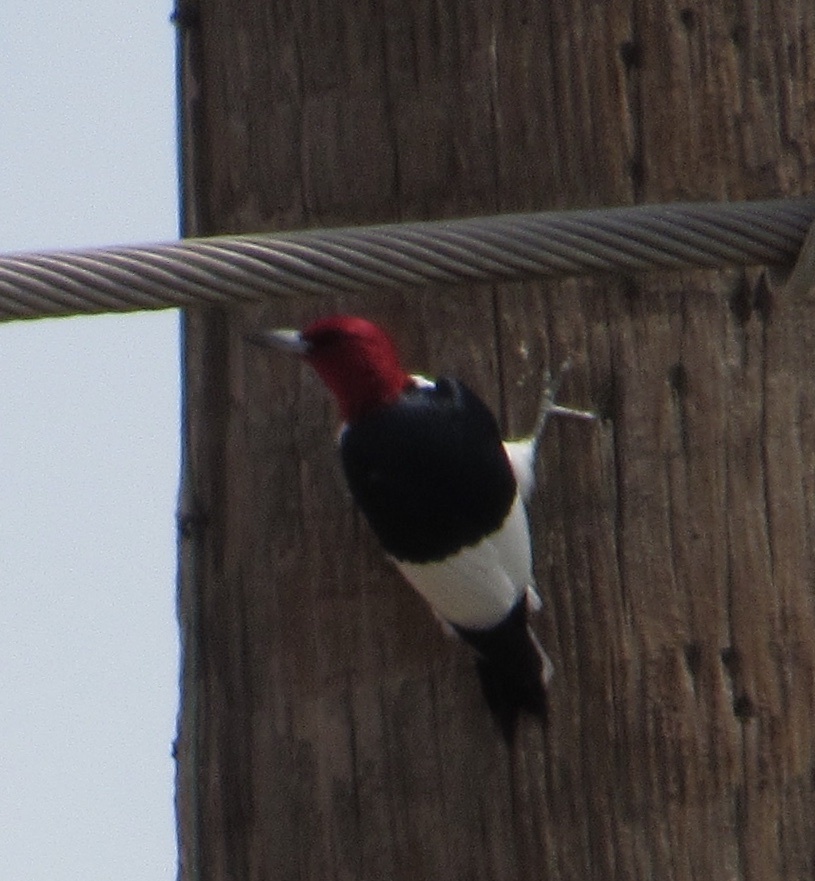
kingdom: Animalia
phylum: Chordata
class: Aves
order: Piciformes
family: Picidae
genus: Melanerpes
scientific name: Melanerpes erythrocephalus
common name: Red-headed woodpecker
